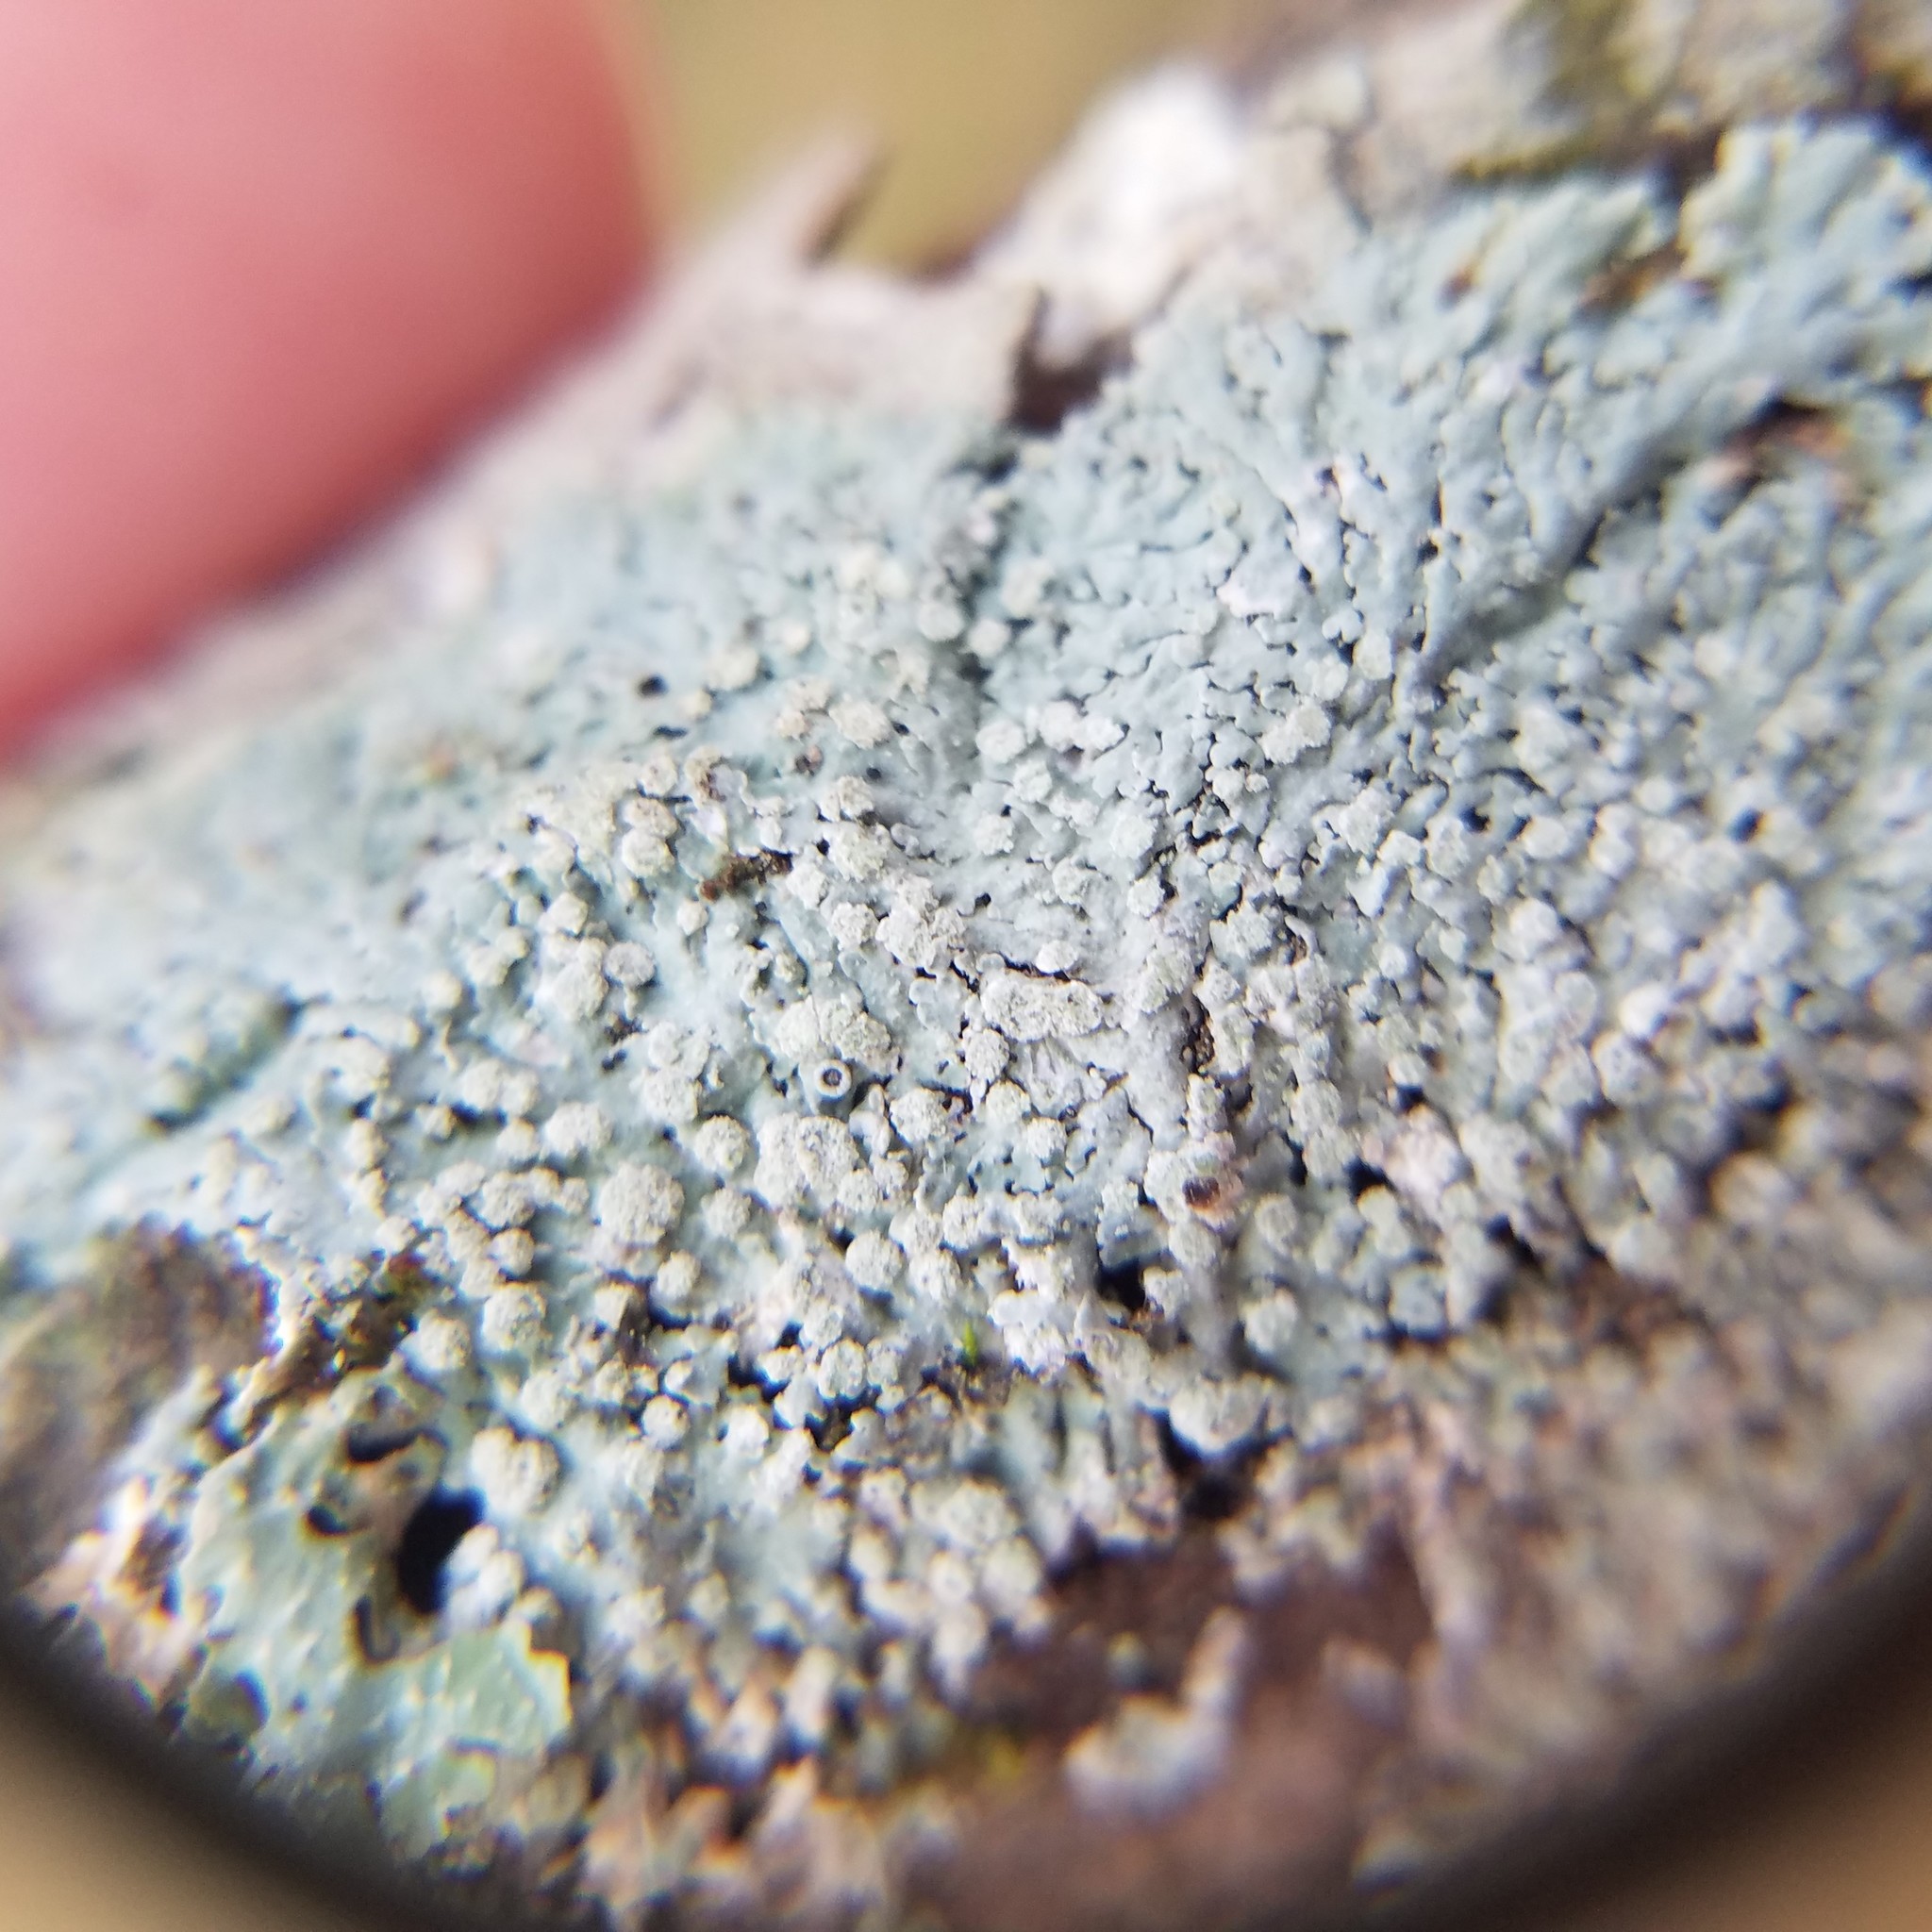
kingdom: Fungi
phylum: Ascomycota
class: Lecanoromycetes
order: Caliciales
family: Physciaceae
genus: Physcia
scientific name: Physcia americana
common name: American rosette lichen
